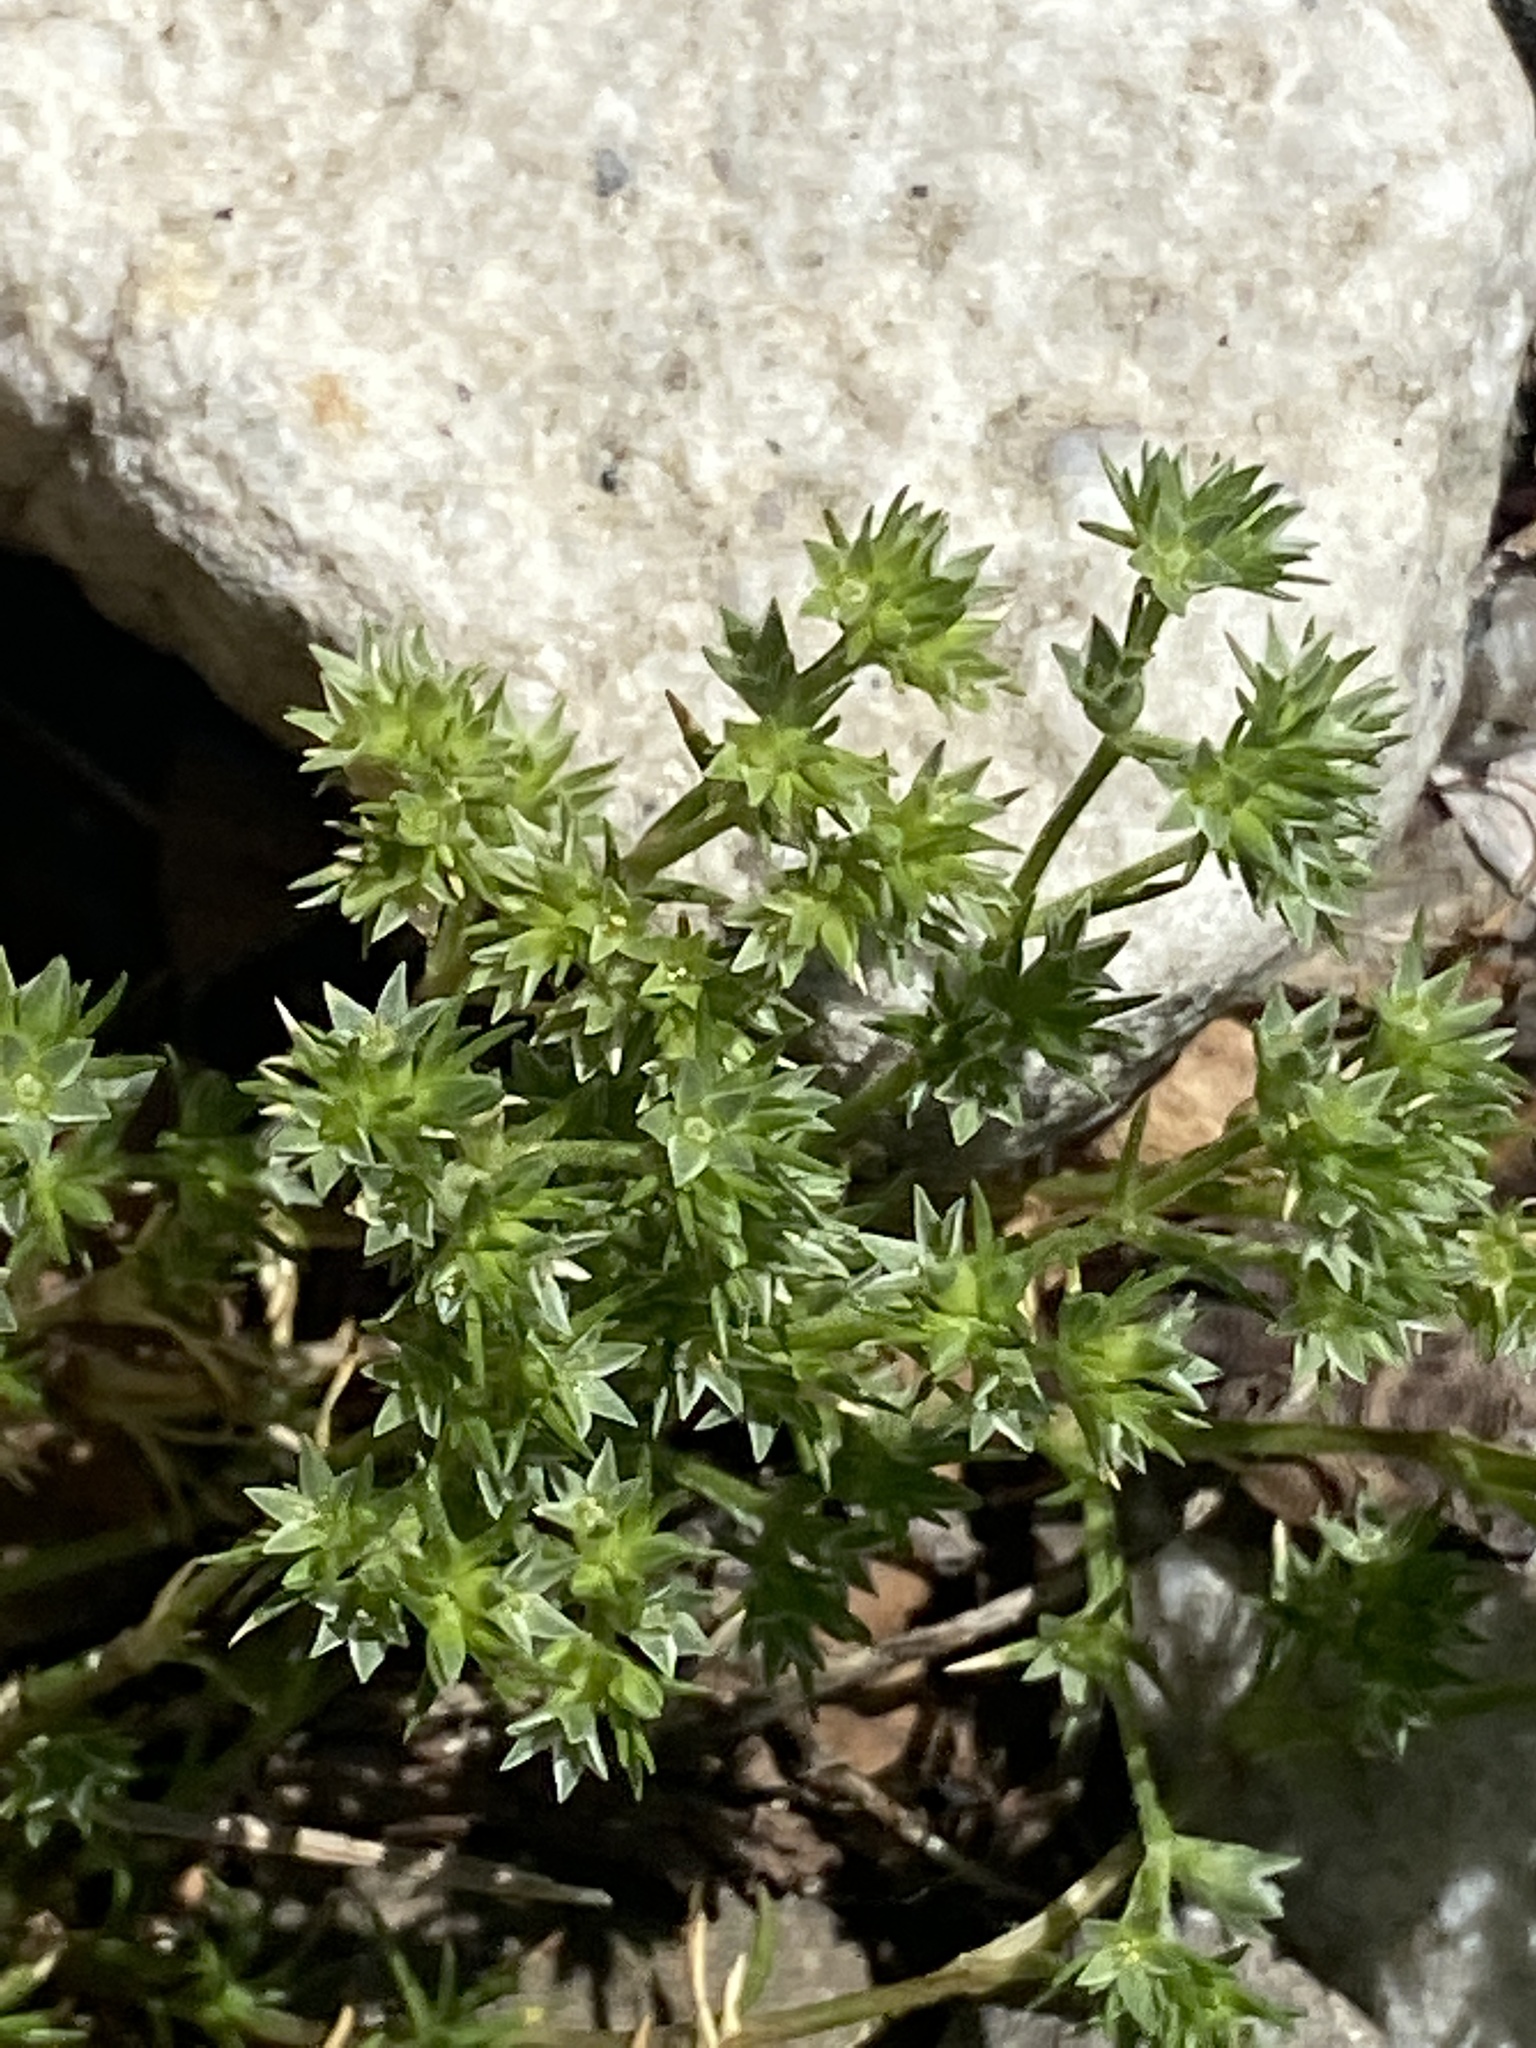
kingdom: Plantae
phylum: Tracheophyta
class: Magnoliopsida
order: Caryophyllales
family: Caryophyllaceae
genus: Scleranthus
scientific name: Scleranthus annuus
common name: Annual knawel
